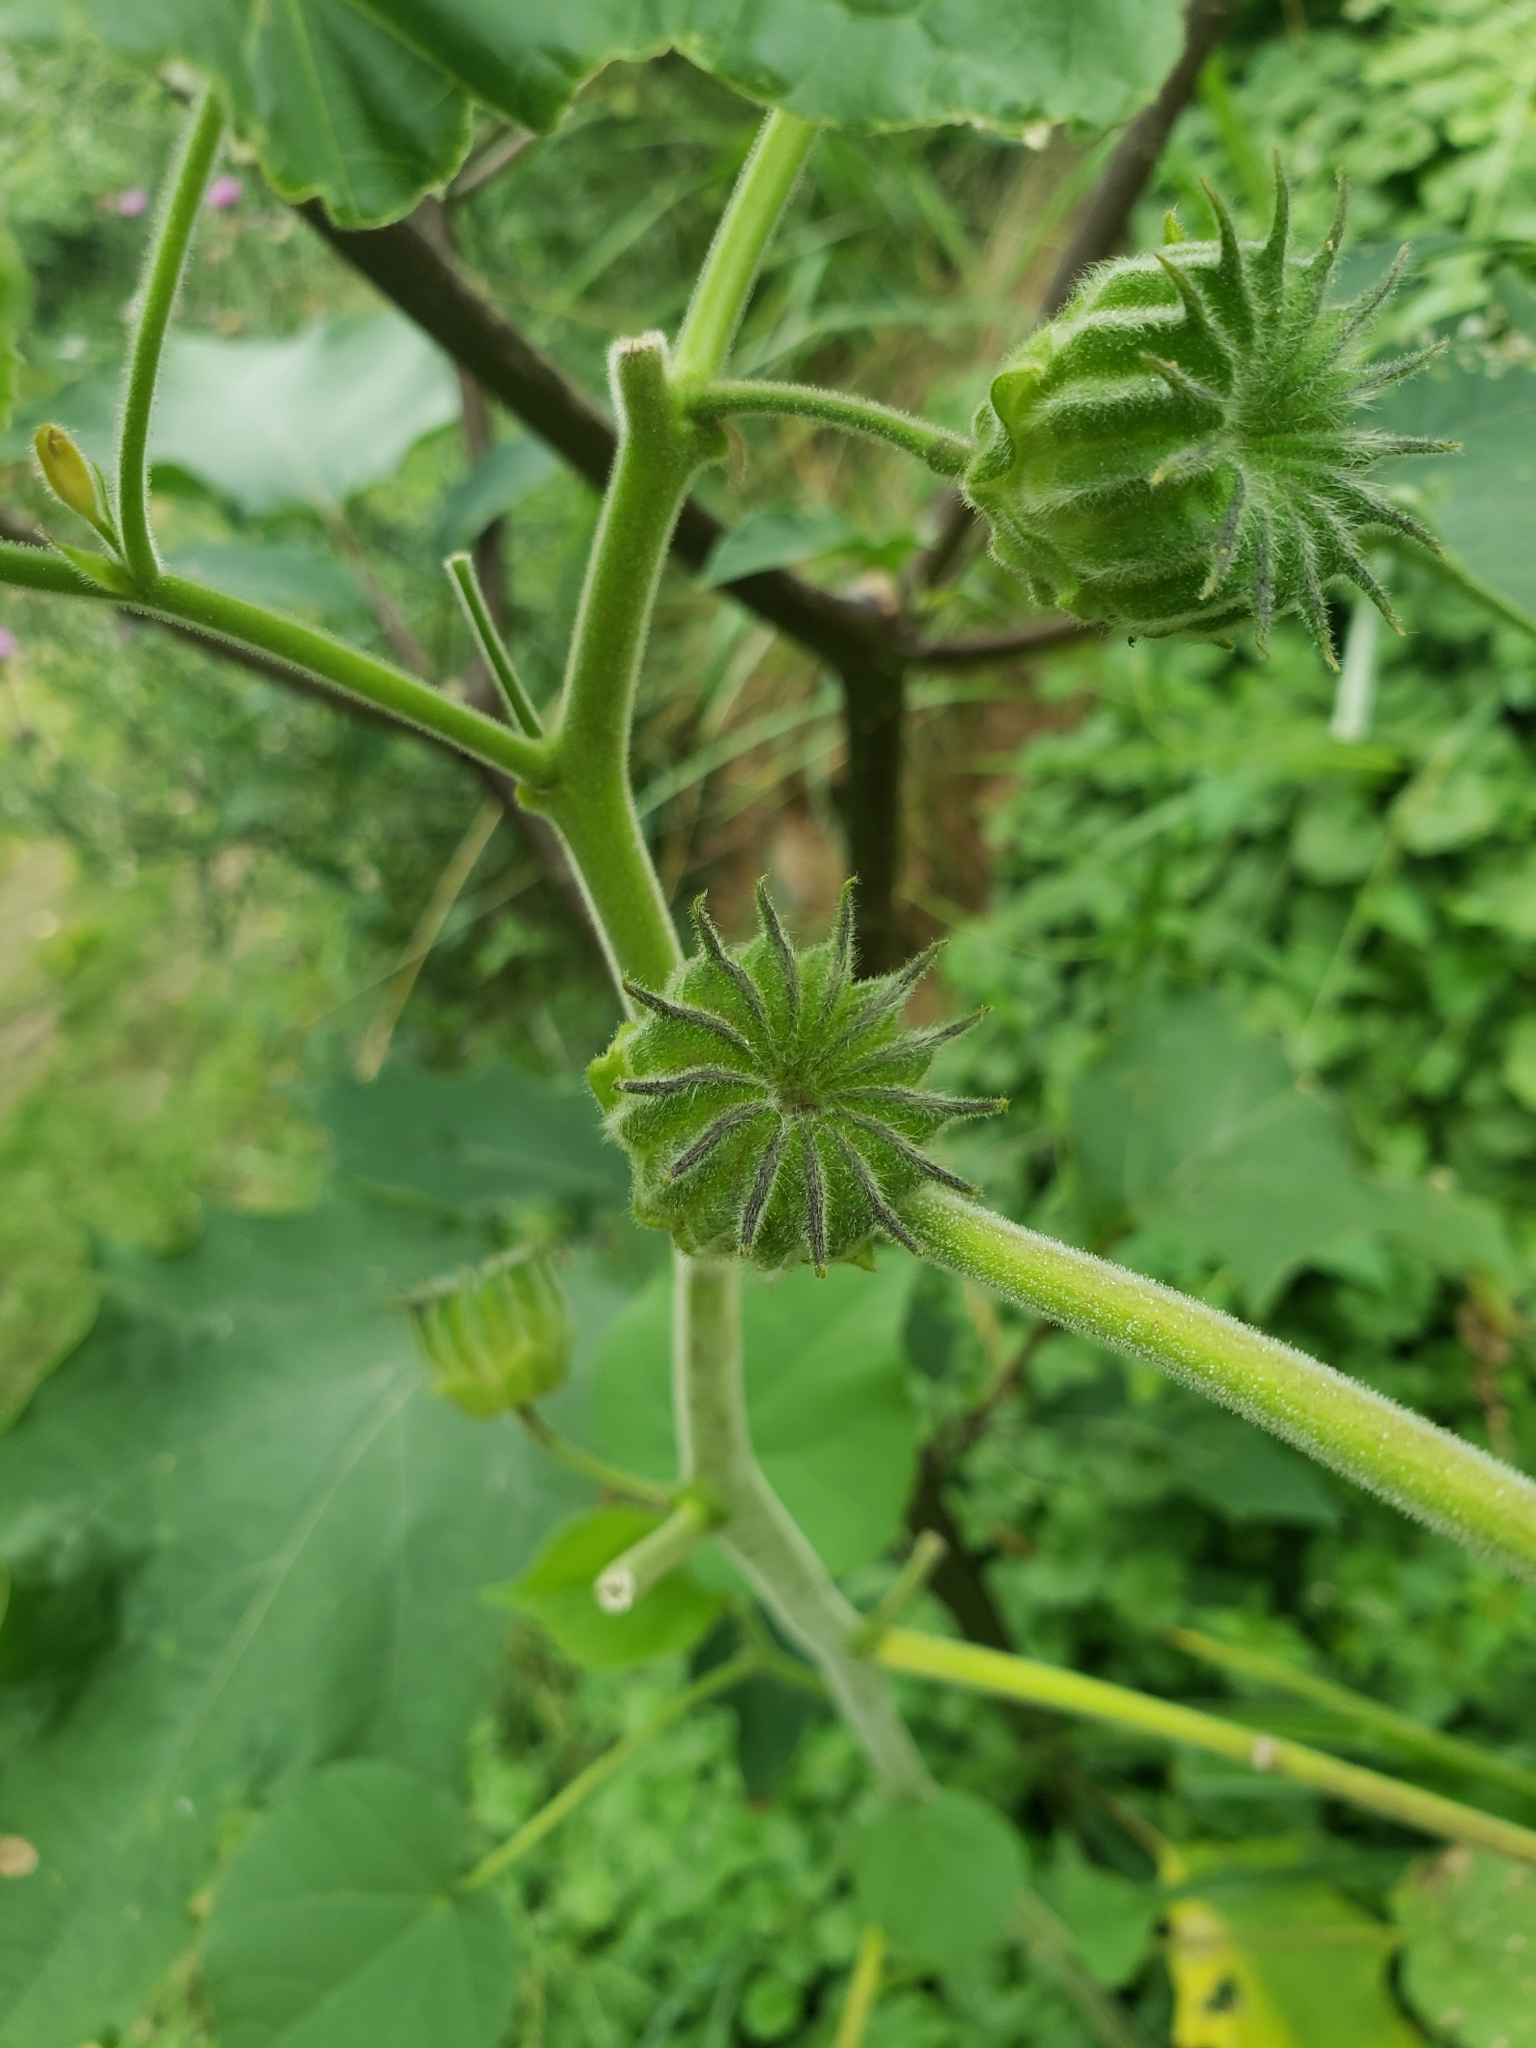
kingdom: Plantae
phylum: Tracheophyta
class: Magnoliopsida
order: Malvales
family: Malvaceae
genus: Abutilon
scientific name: Abutilon theophrasti
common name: Velvetleaf
